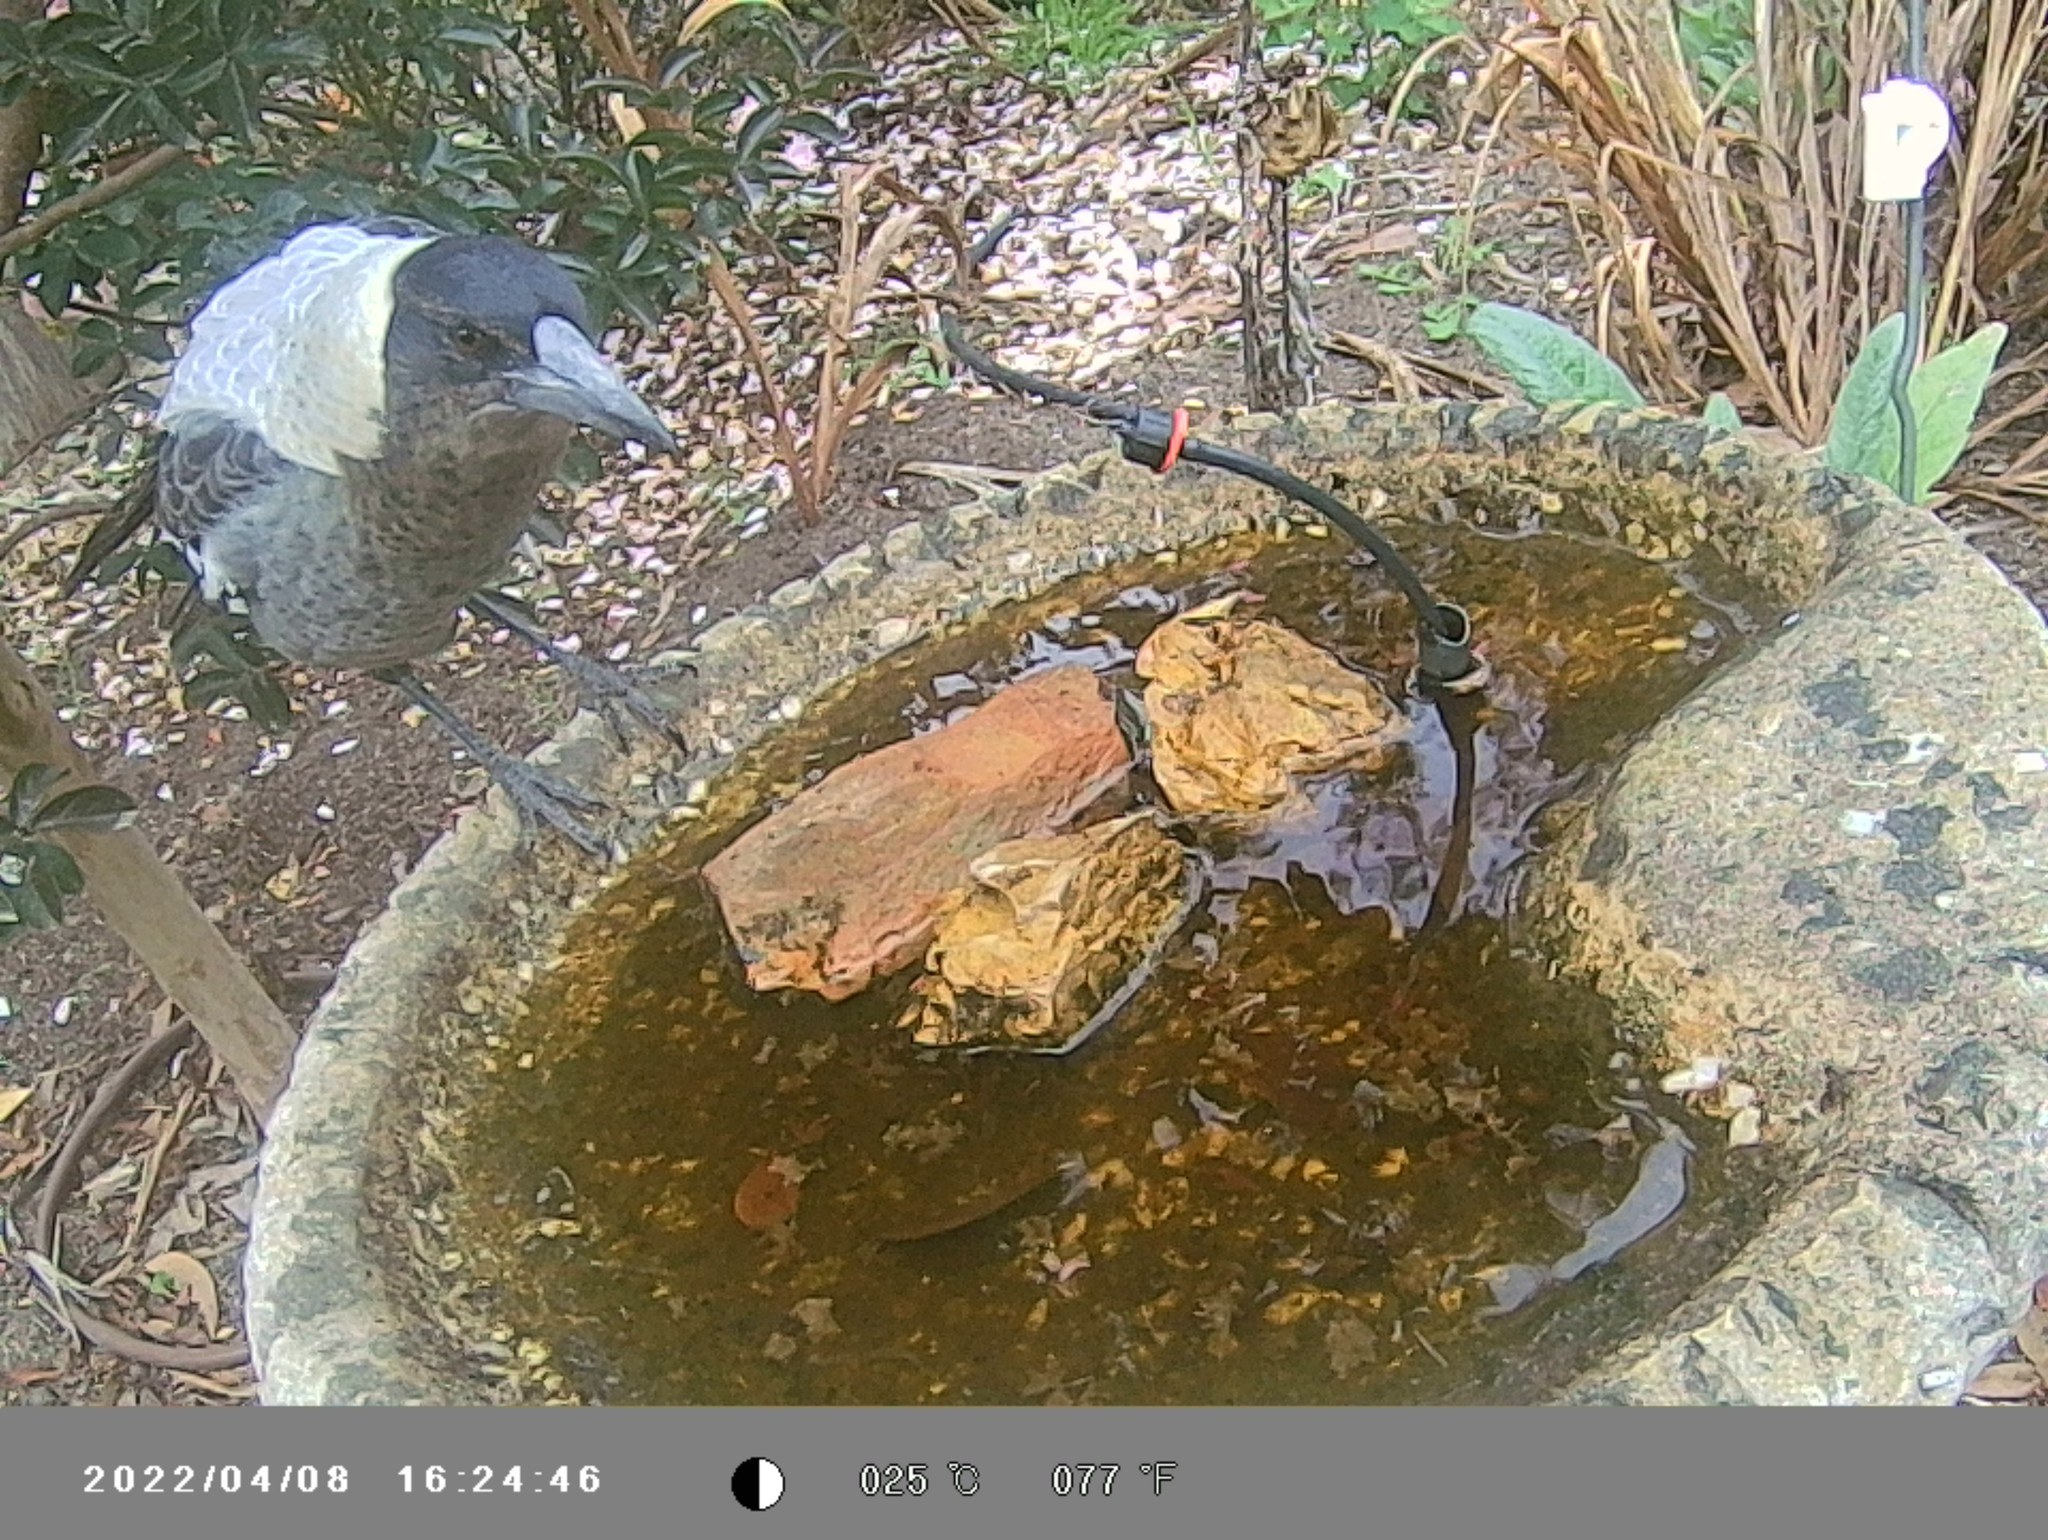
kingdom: Animalia
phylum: Chordata
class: Aves
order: Passeriformes
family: Cracticidae
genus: Gymnorhina
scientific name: Gymnorhina tibicen
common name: Australian magpie
